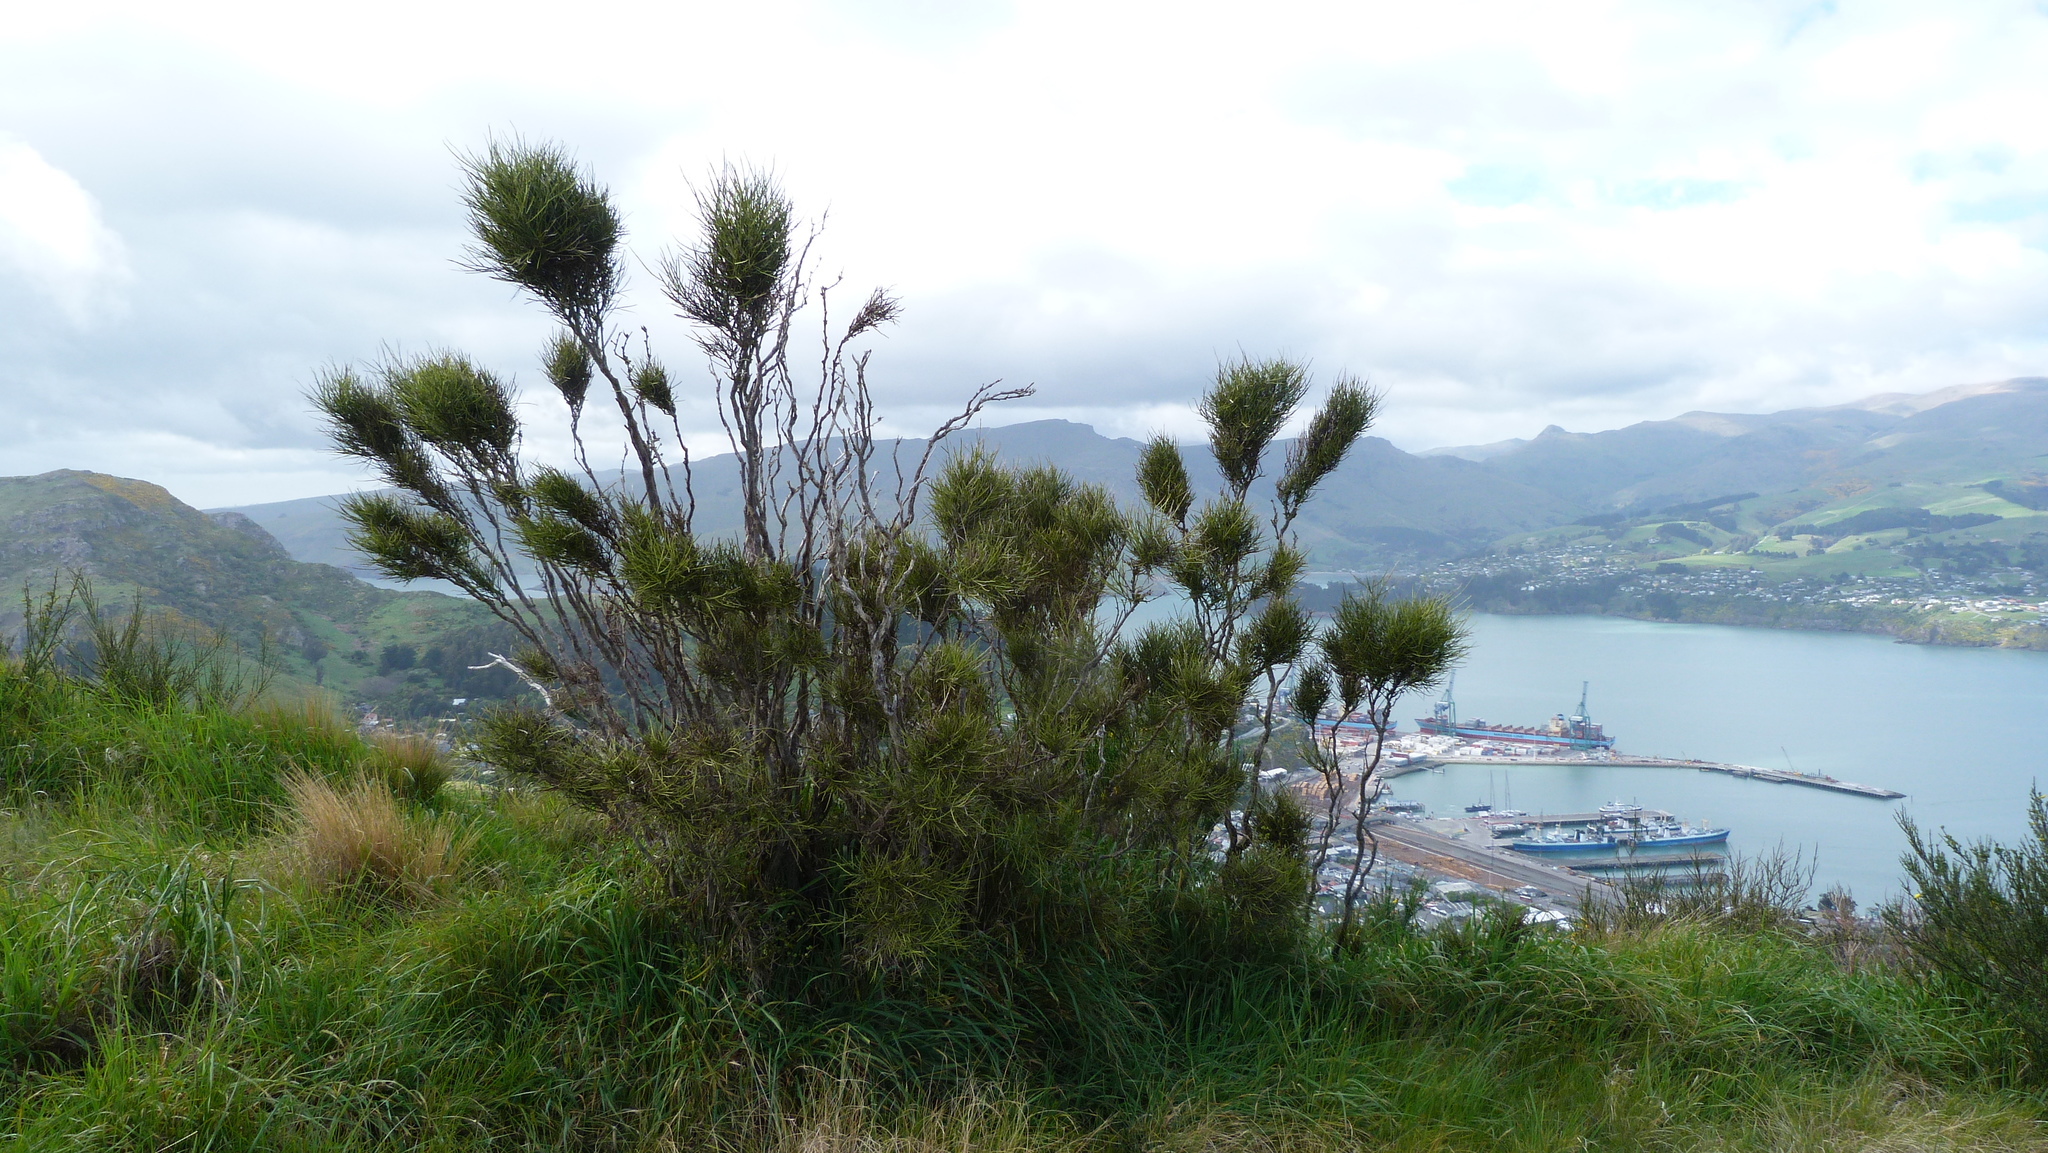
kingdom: Plantae
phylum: Tracheophyta
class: Magnoliopsida
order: Fabales
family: Fabaceae
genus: Carmichaelia
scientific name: Carmichaelia australis
